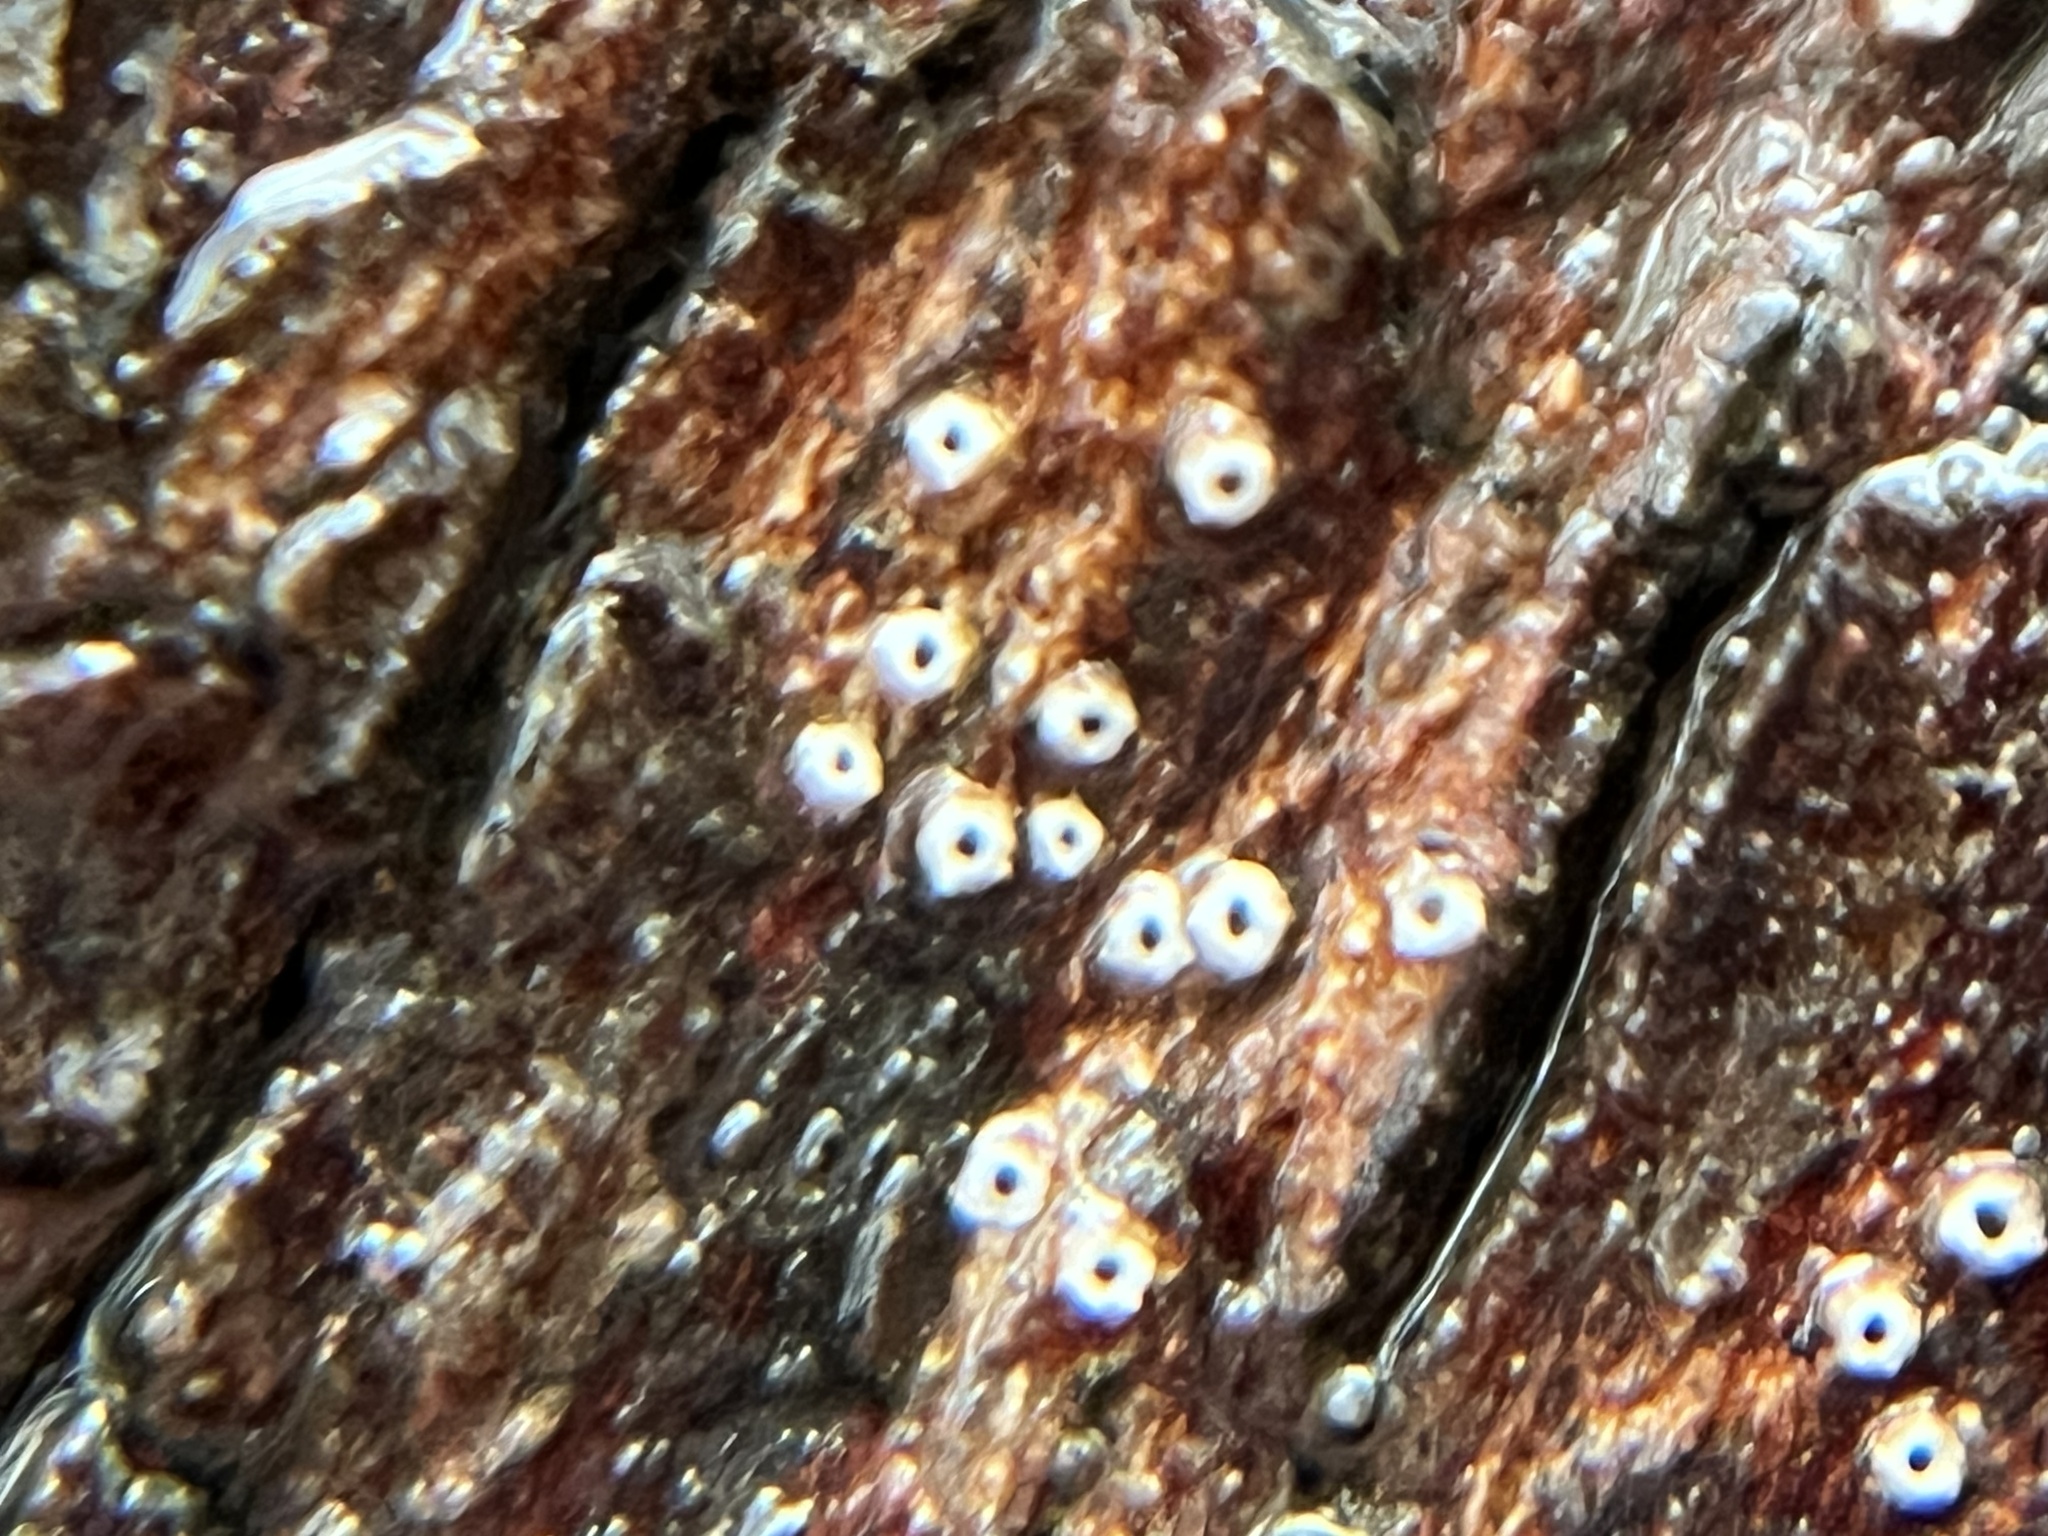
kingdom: Fungi
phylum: Ascomycota
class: Lecanoromycetes
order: Ostropales
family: Stictidaceae
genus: Stictis
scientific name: Stictis radiata
